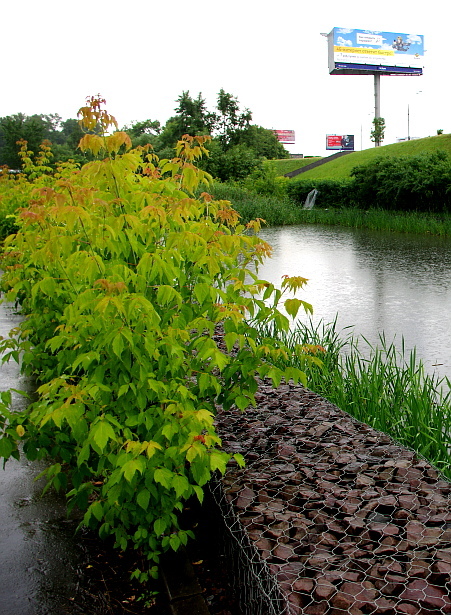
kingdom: Plantae
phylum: Tracheophyta
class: Magnoliopsida
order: Sapindales
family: Sapindaceae
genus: Acer
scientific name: Acer negundo
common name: Ashleaf maple
